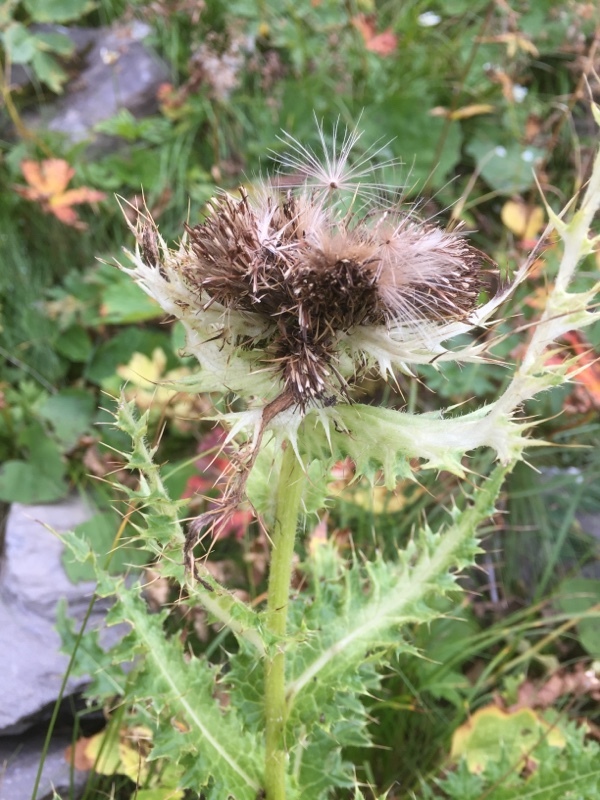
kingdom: Plantae
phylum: Tracheophyta
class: Magnoliopsida
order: Asterales
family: Asteraceae
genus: Cirsium
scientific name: Cirsium spinosissimum
